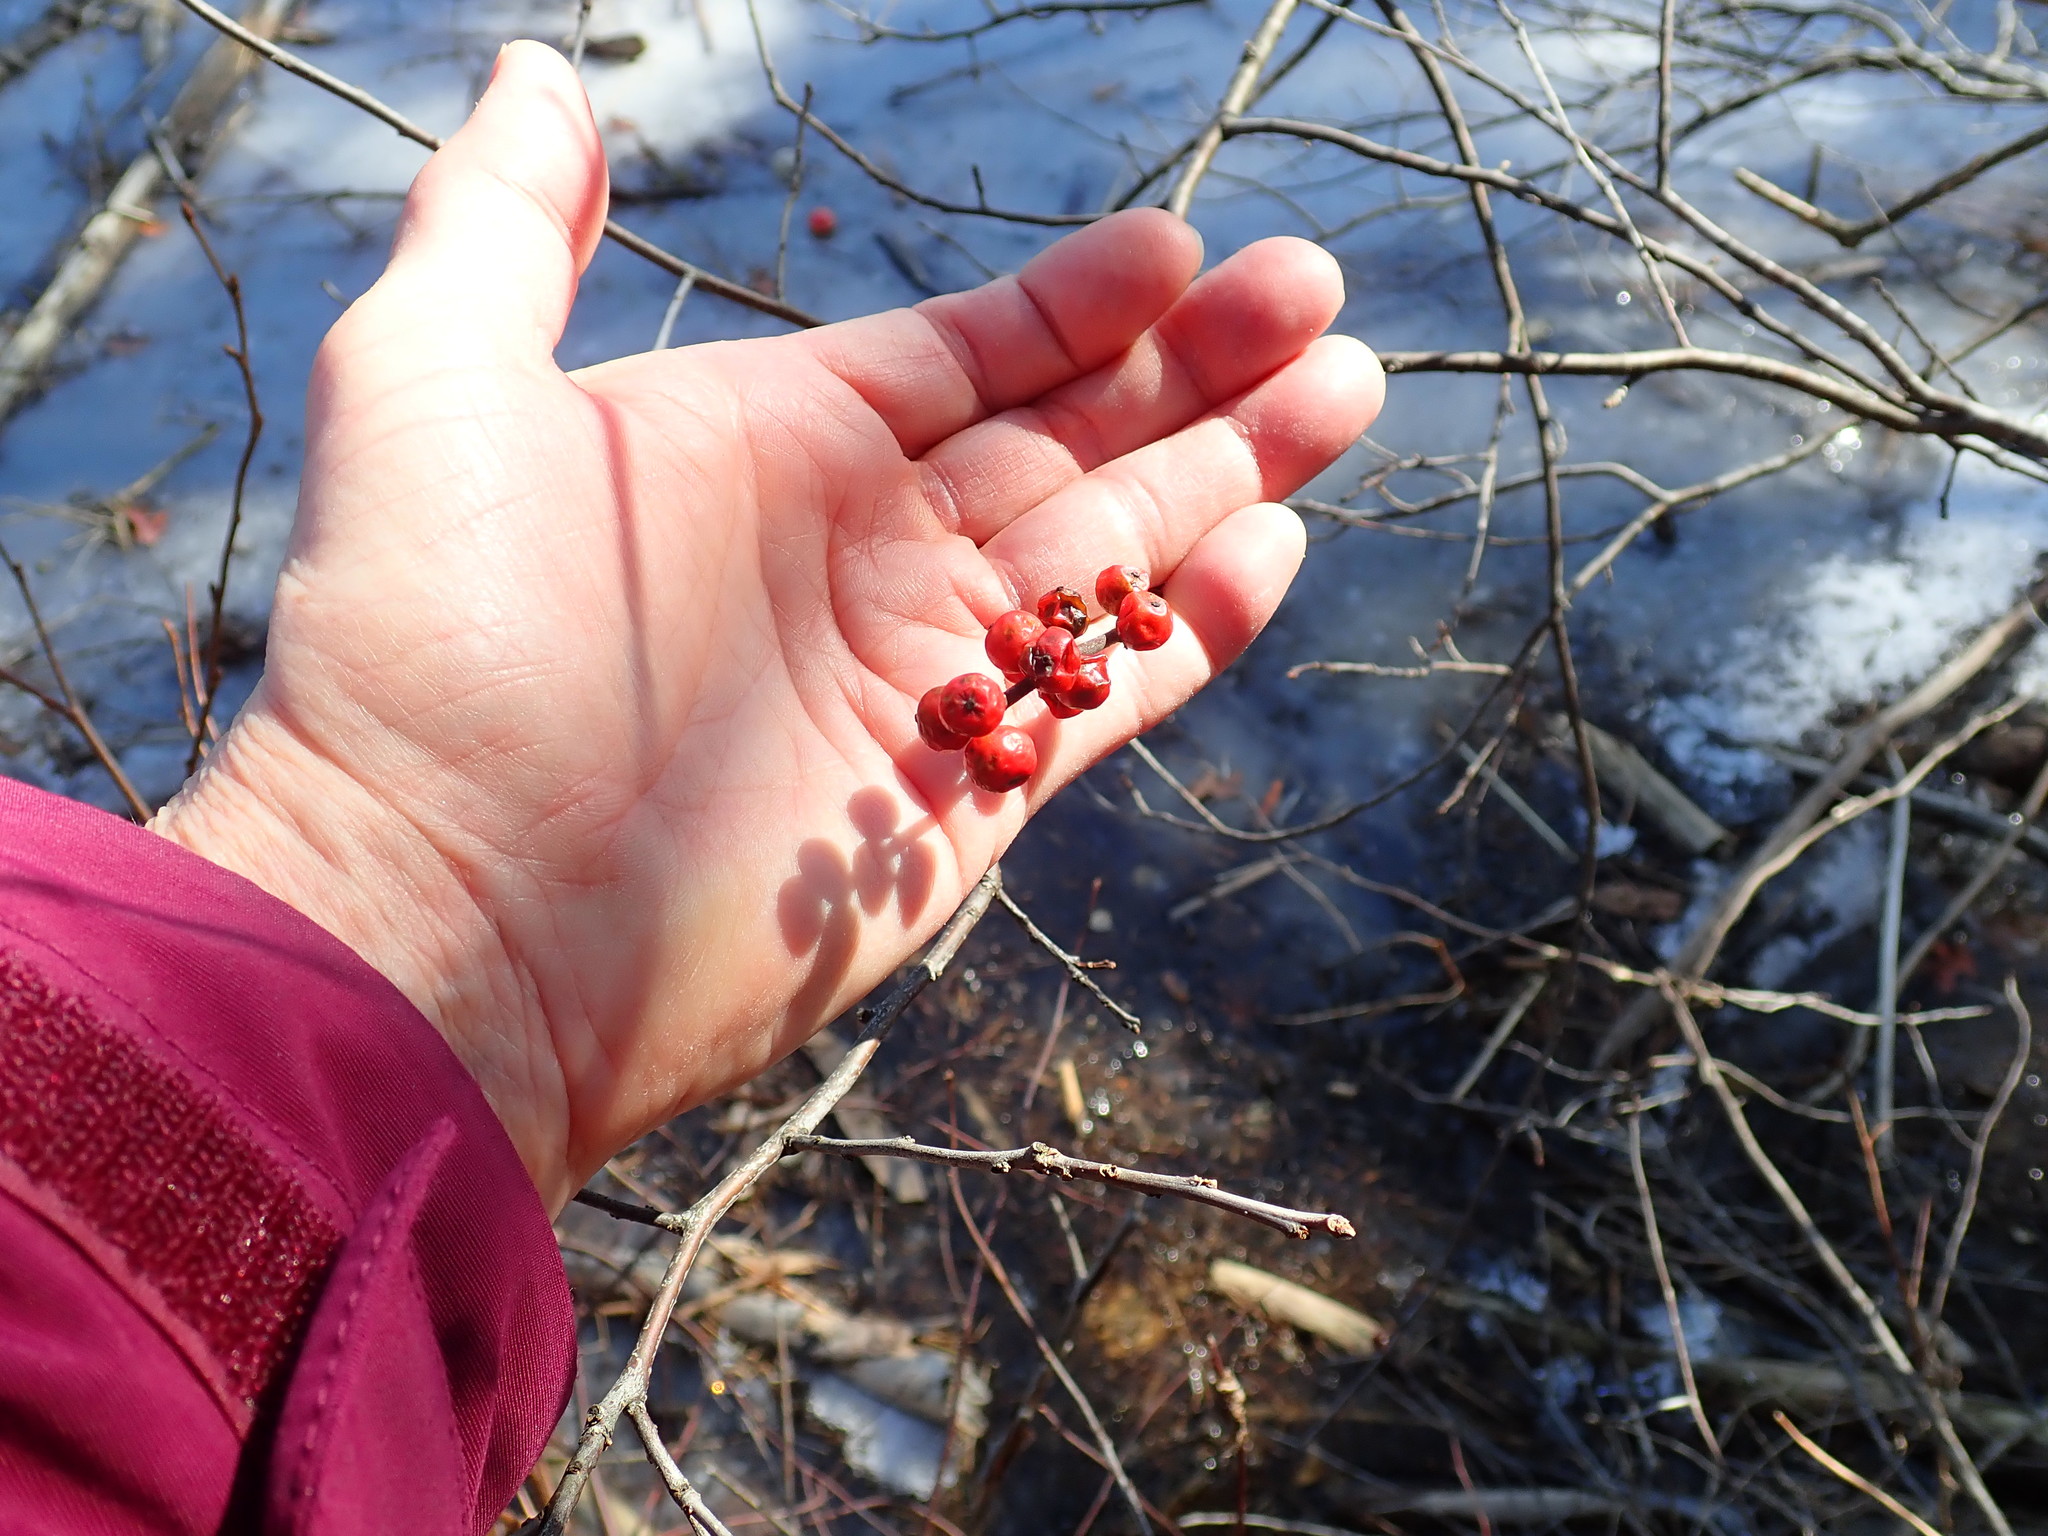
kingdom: Plantae
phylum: Tracheophyta
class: Magnoliopsida
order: Aquifoliales
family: Aquifoliaceae
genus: Ilex
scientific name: Ilex verticillata
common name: Virginia winterberry
